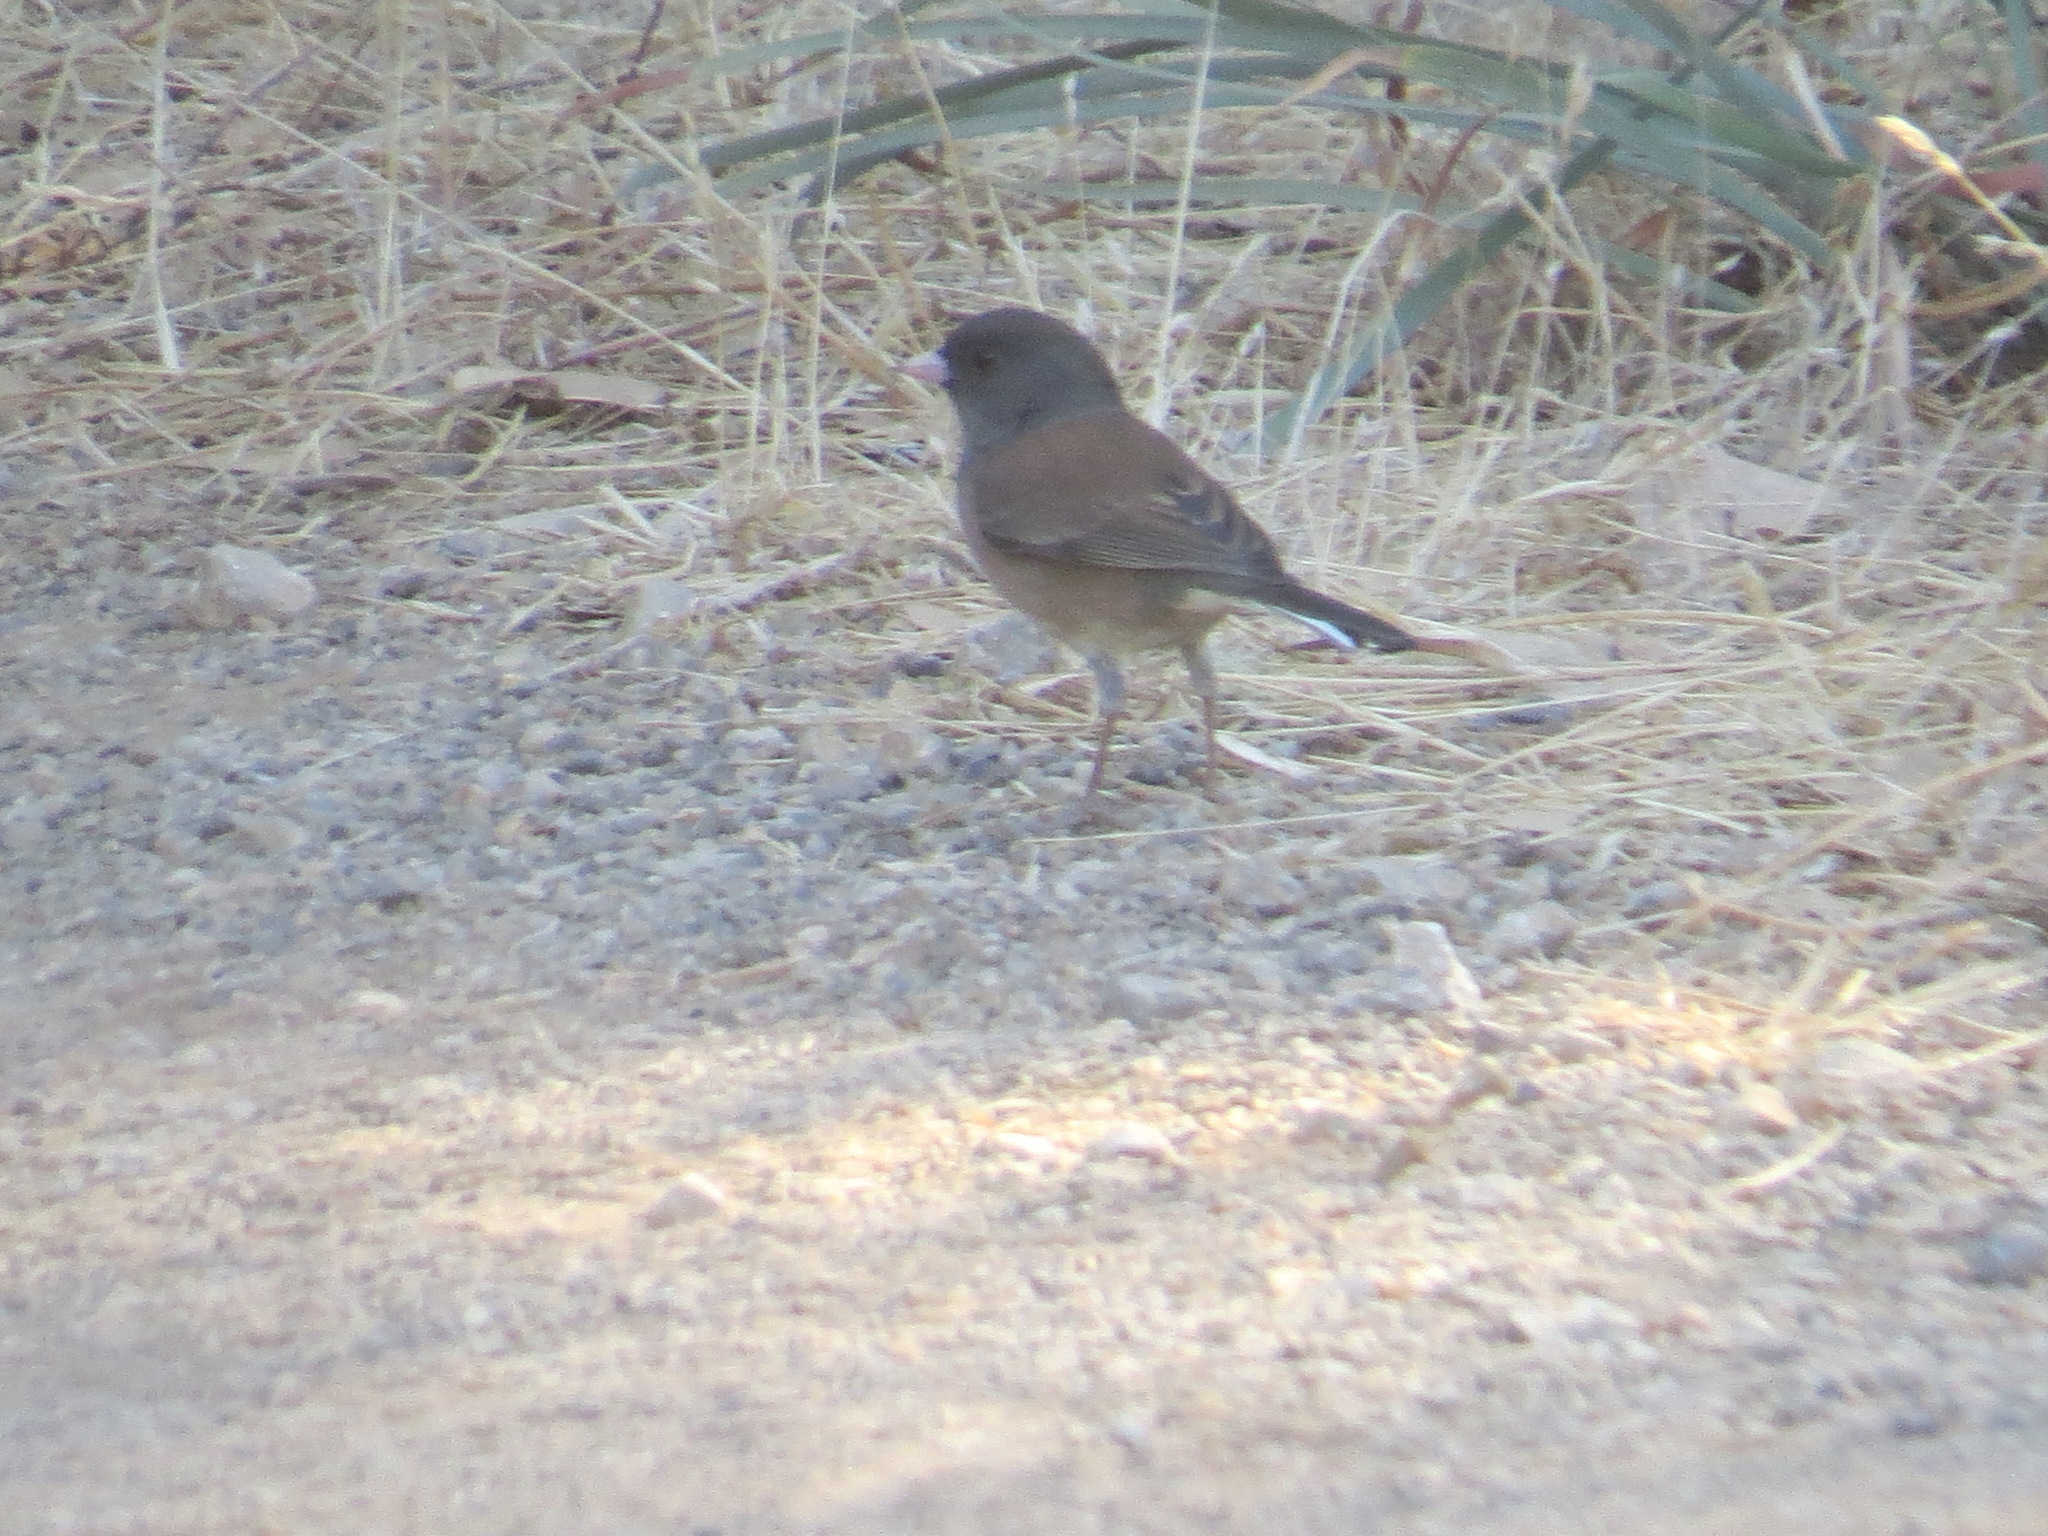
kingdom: Animalia
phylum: Chordata
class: Aves
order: Passeriformes
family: Passerellidae
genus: Junco
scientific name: Junco hyemalis
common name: Dark-eyed junco
